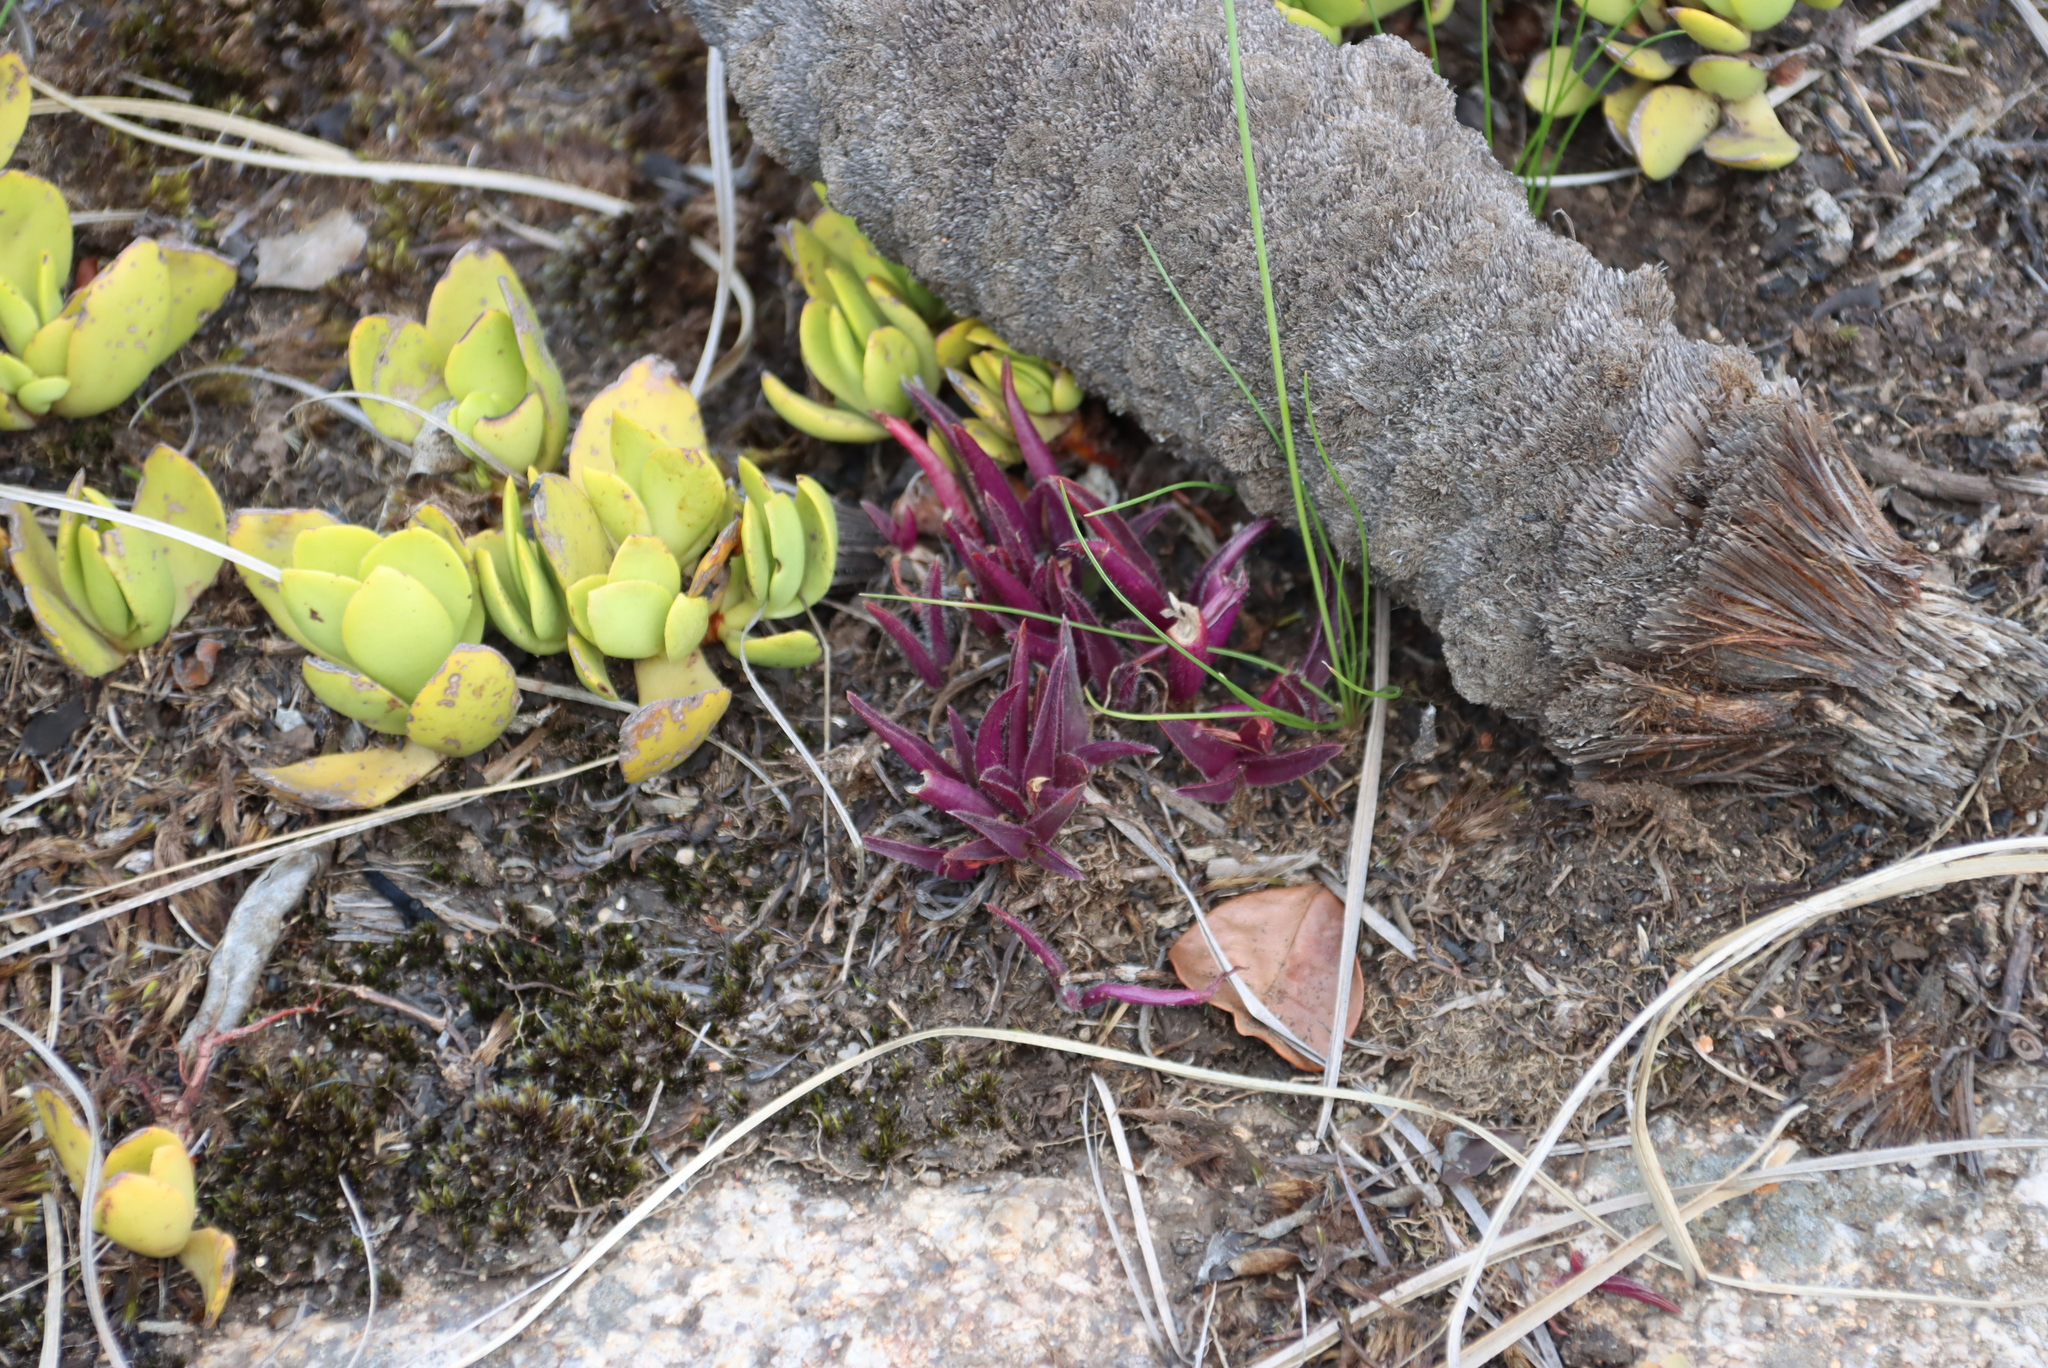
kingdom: Plantae
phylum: Tracheophyta
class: Liliopsida
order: Commelinales
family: Commelinaceae
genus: Cyanotis
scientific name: Cyanotis lapidosa
